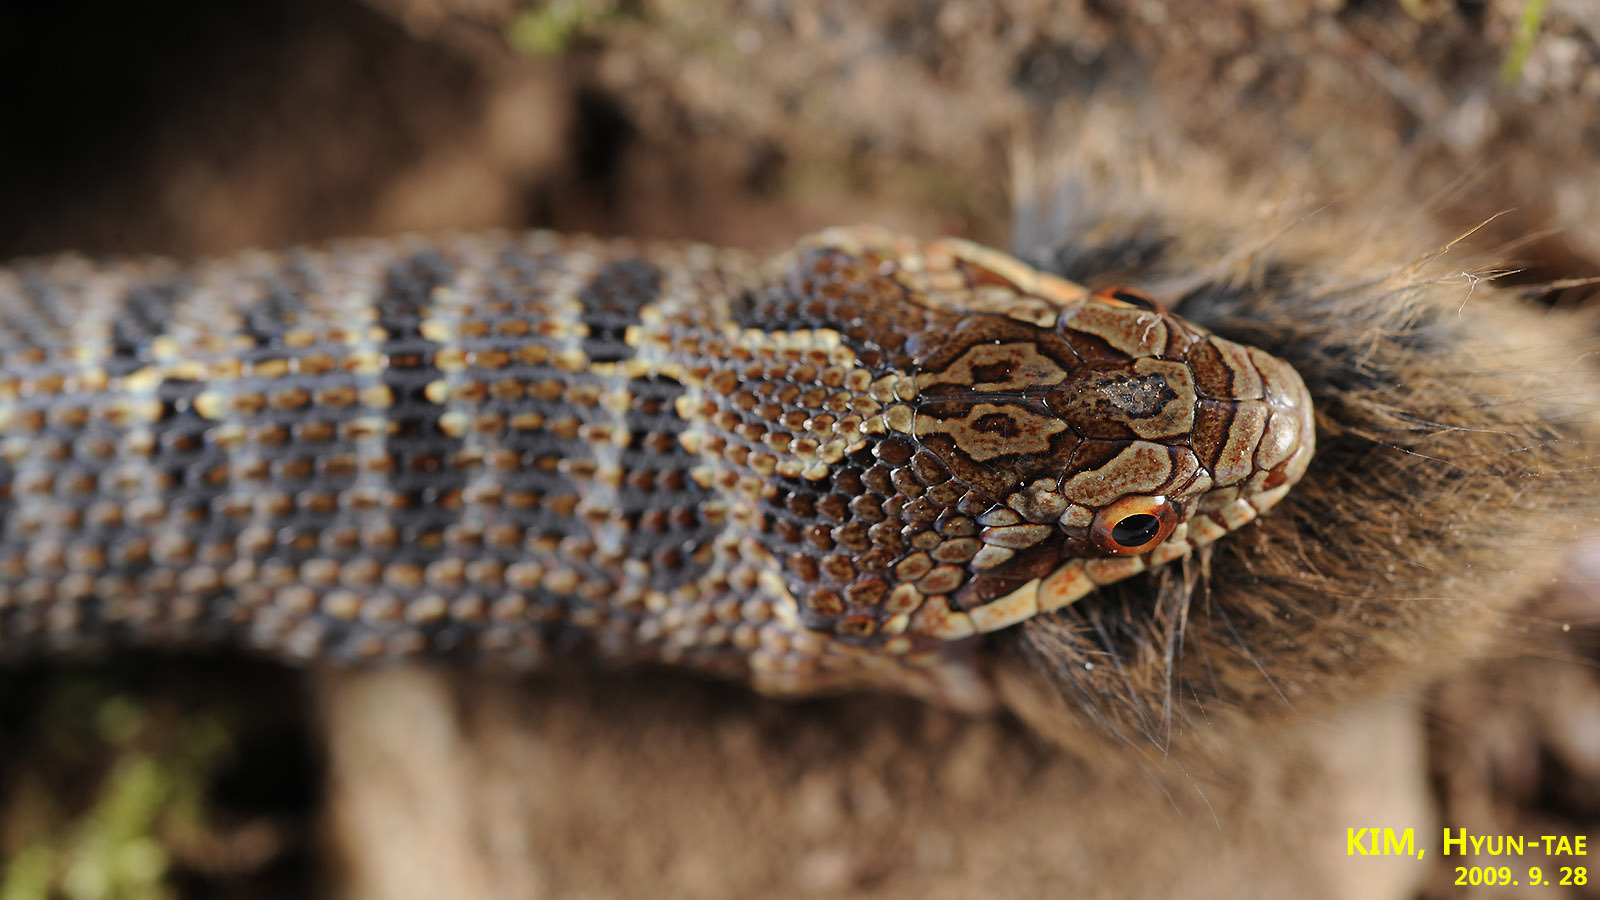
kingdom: Animalia
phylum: Chordata
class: Squamata
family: Colubridae
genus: Elaphe
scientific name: Elaphe dione
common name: Dione ratsnake
